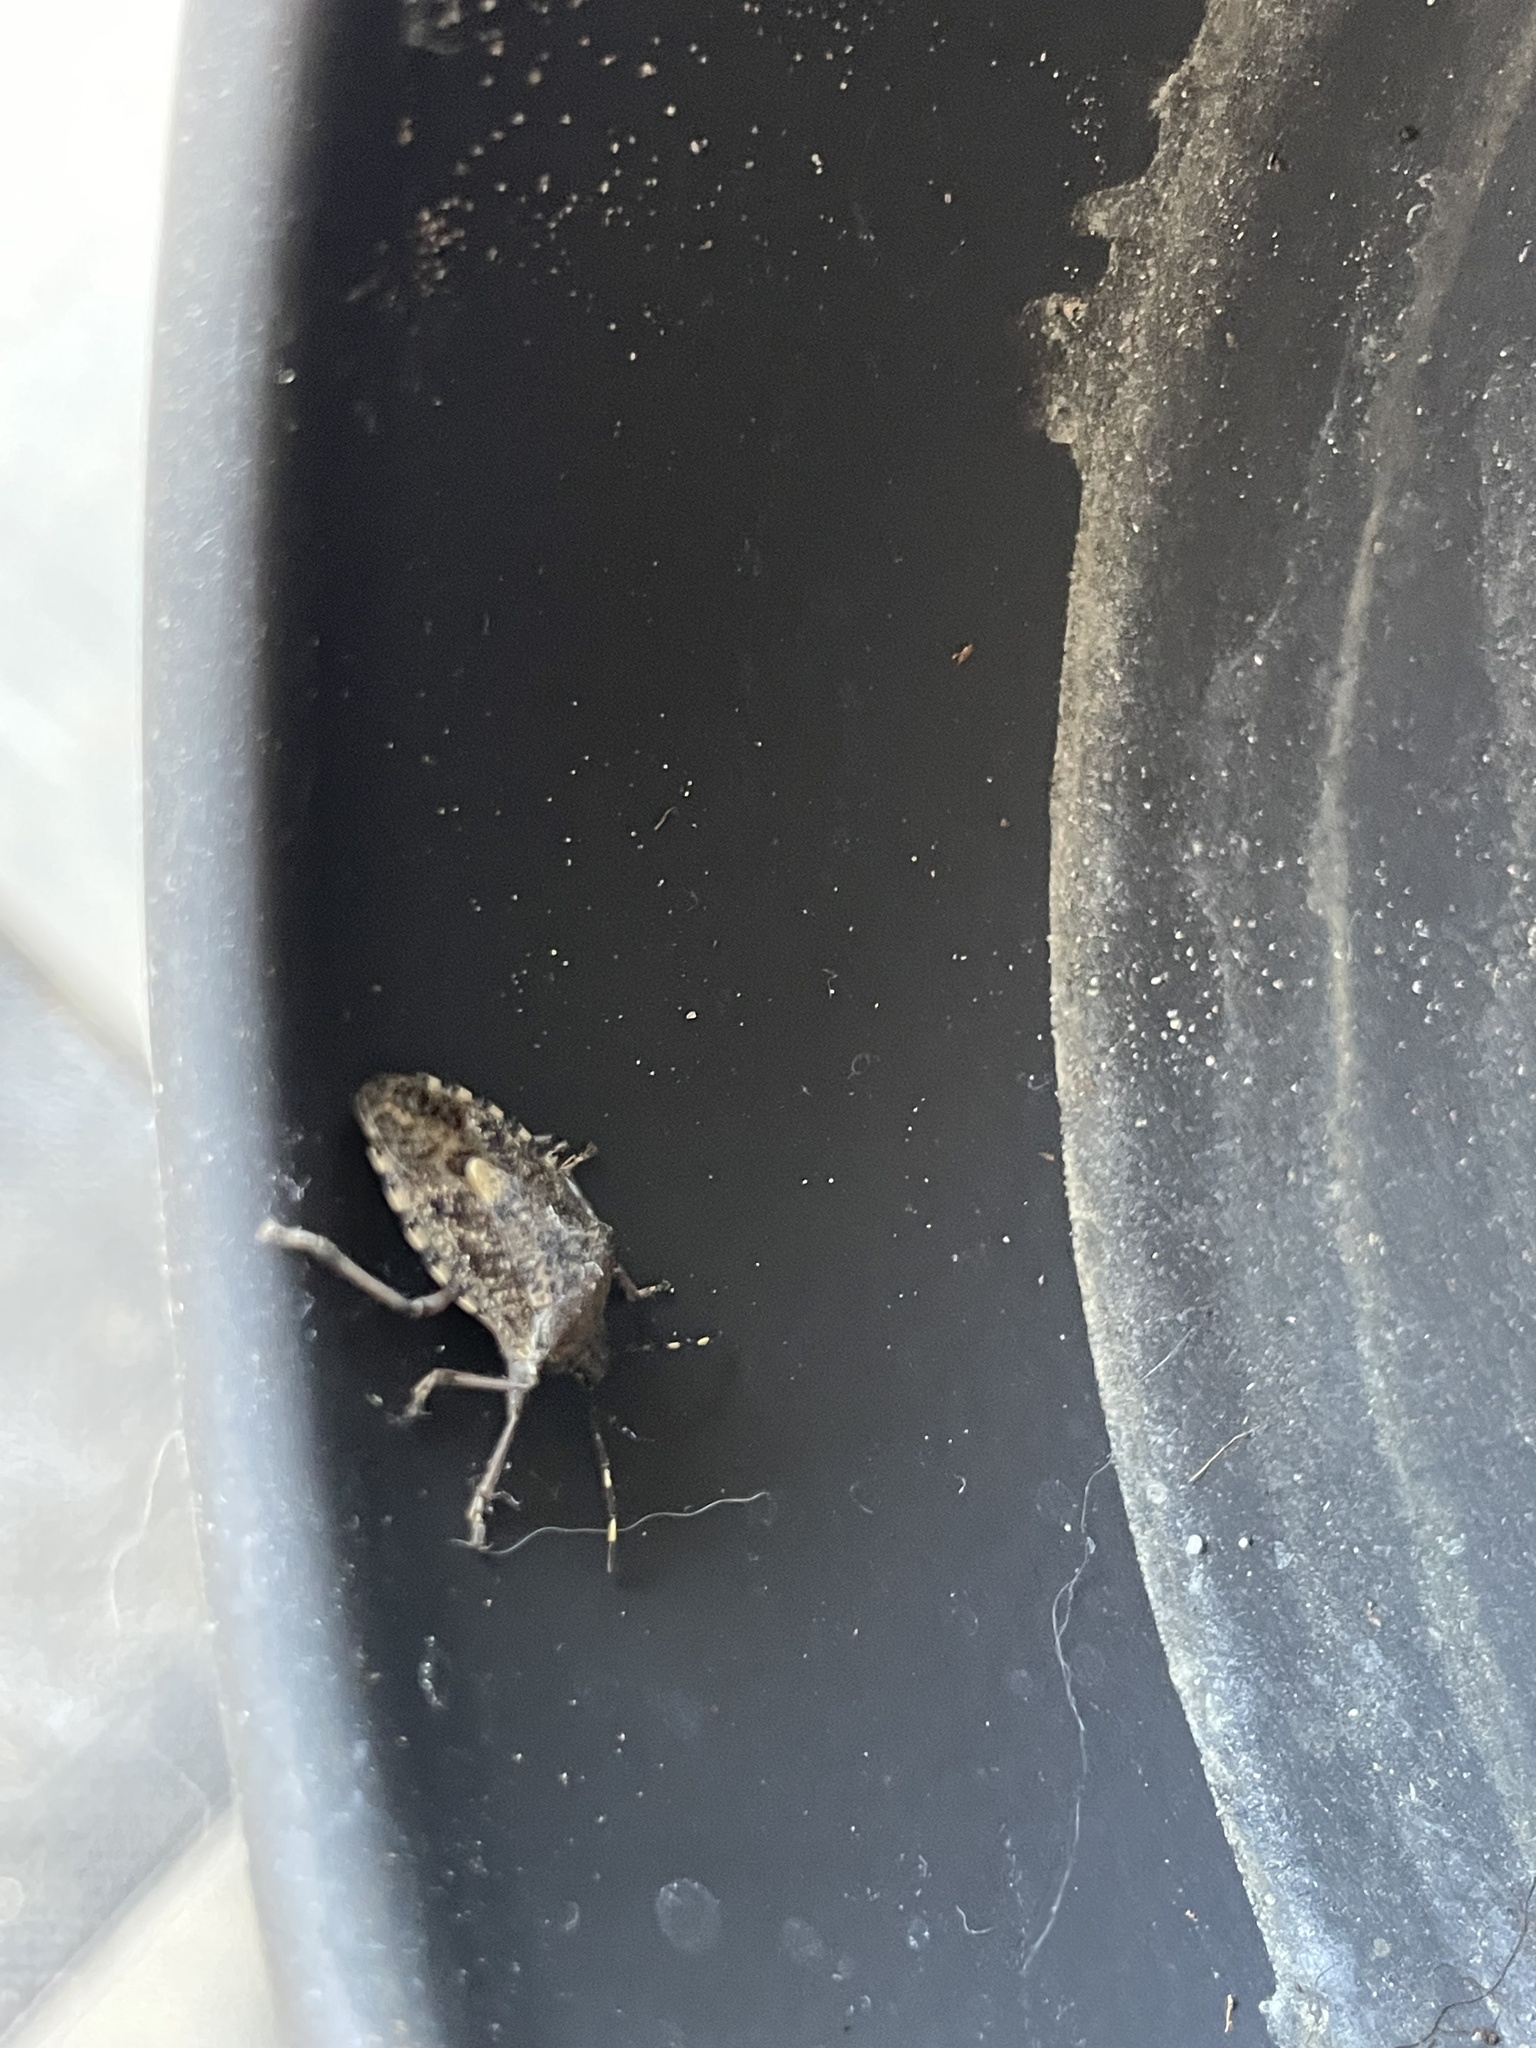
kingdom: Animalia
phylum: Arthropoda
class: Insecta
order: Hemiptera
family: Pentatomidae
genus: Rhaphigaster
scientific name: Rhaphigaster nebulosa
